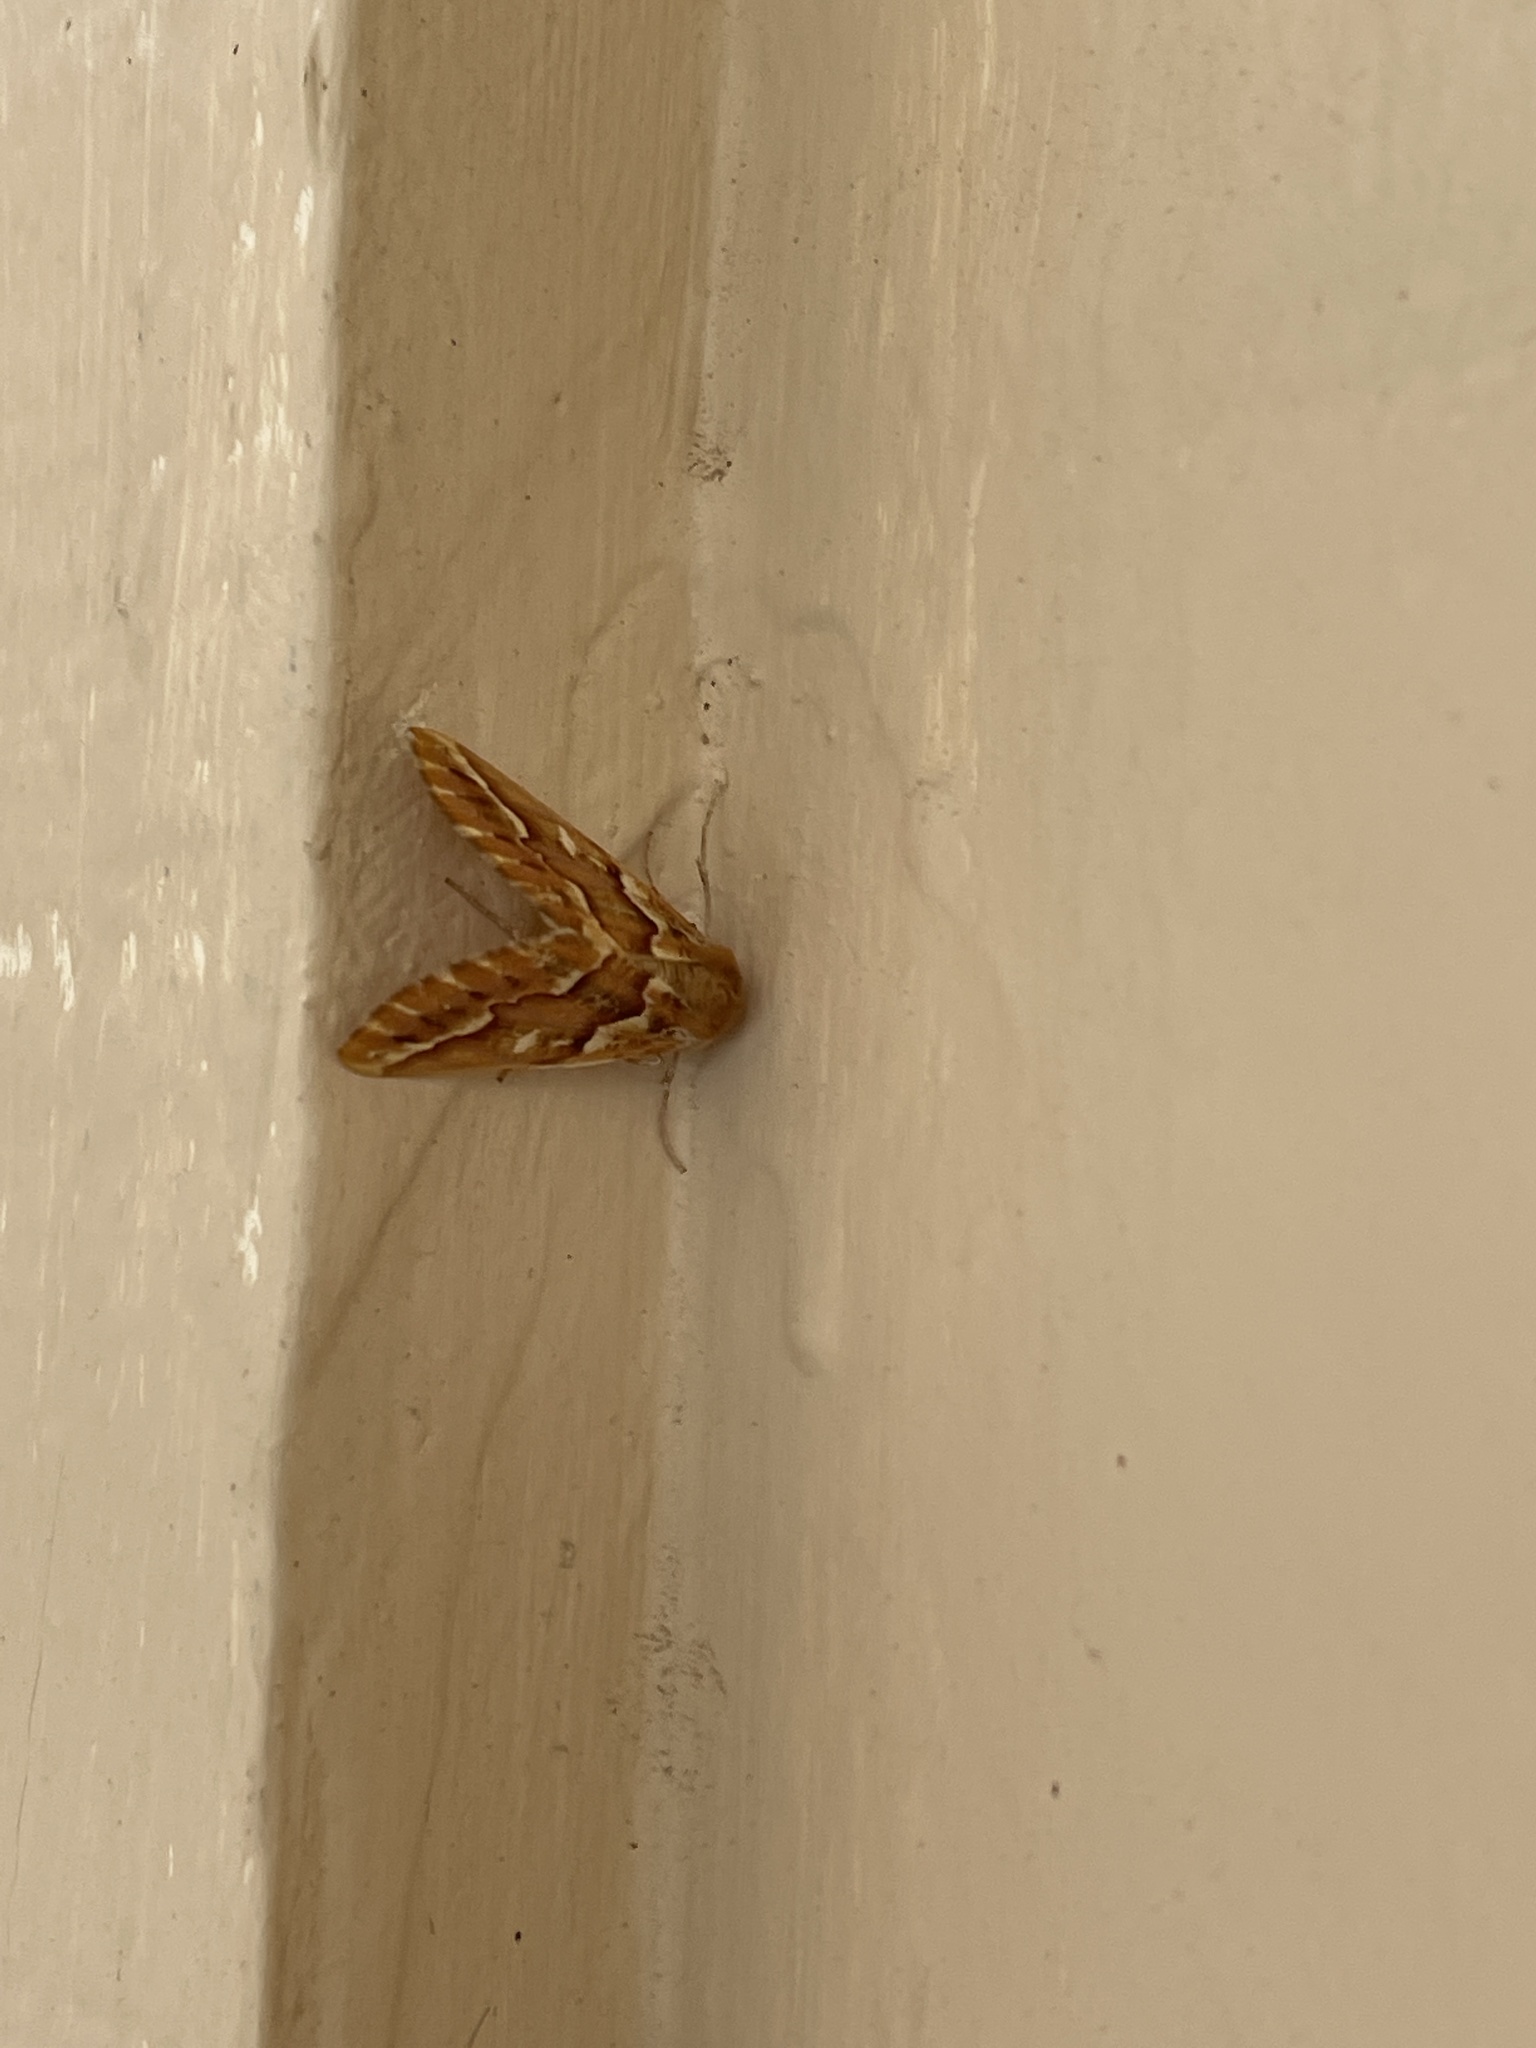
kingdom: Animalia
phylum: Arthropoda
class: Insecta
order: Lepidoptera
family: Geometridae
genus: Caripeta
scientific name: Caripeta aequaliaria
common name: Red girdle moth
